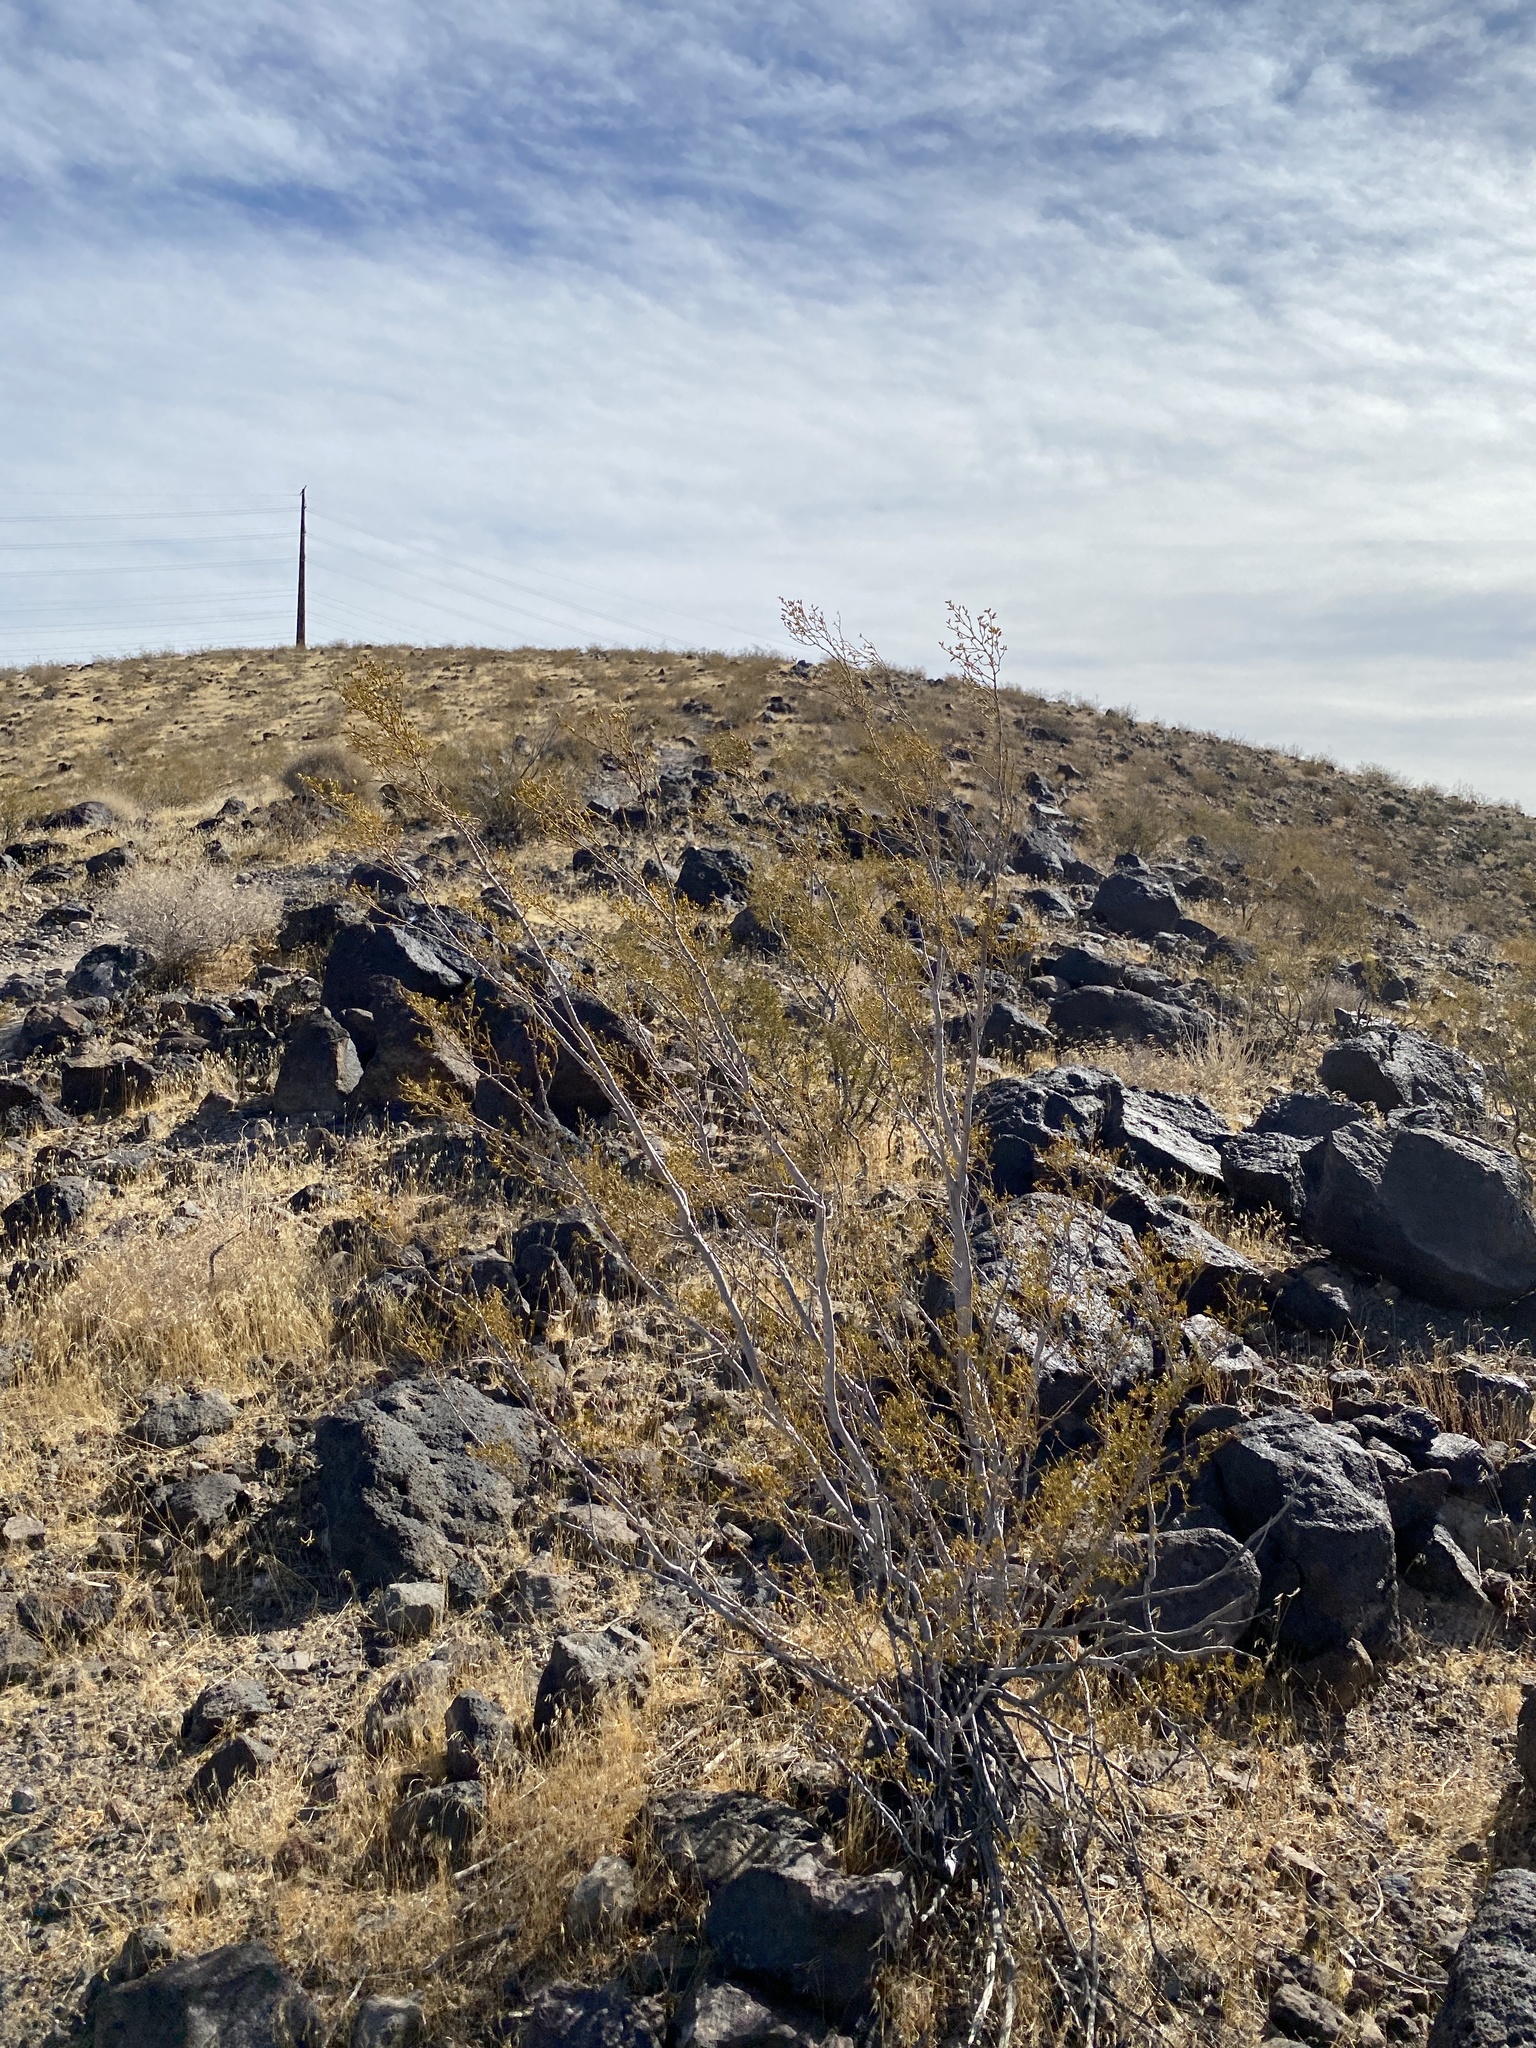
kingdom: Plantae
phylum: Tracheophyta
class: Magnoliopsida
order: Zygophyllales
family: Zygophyllaceae
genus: Larrea
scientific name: Larrea tridentata
